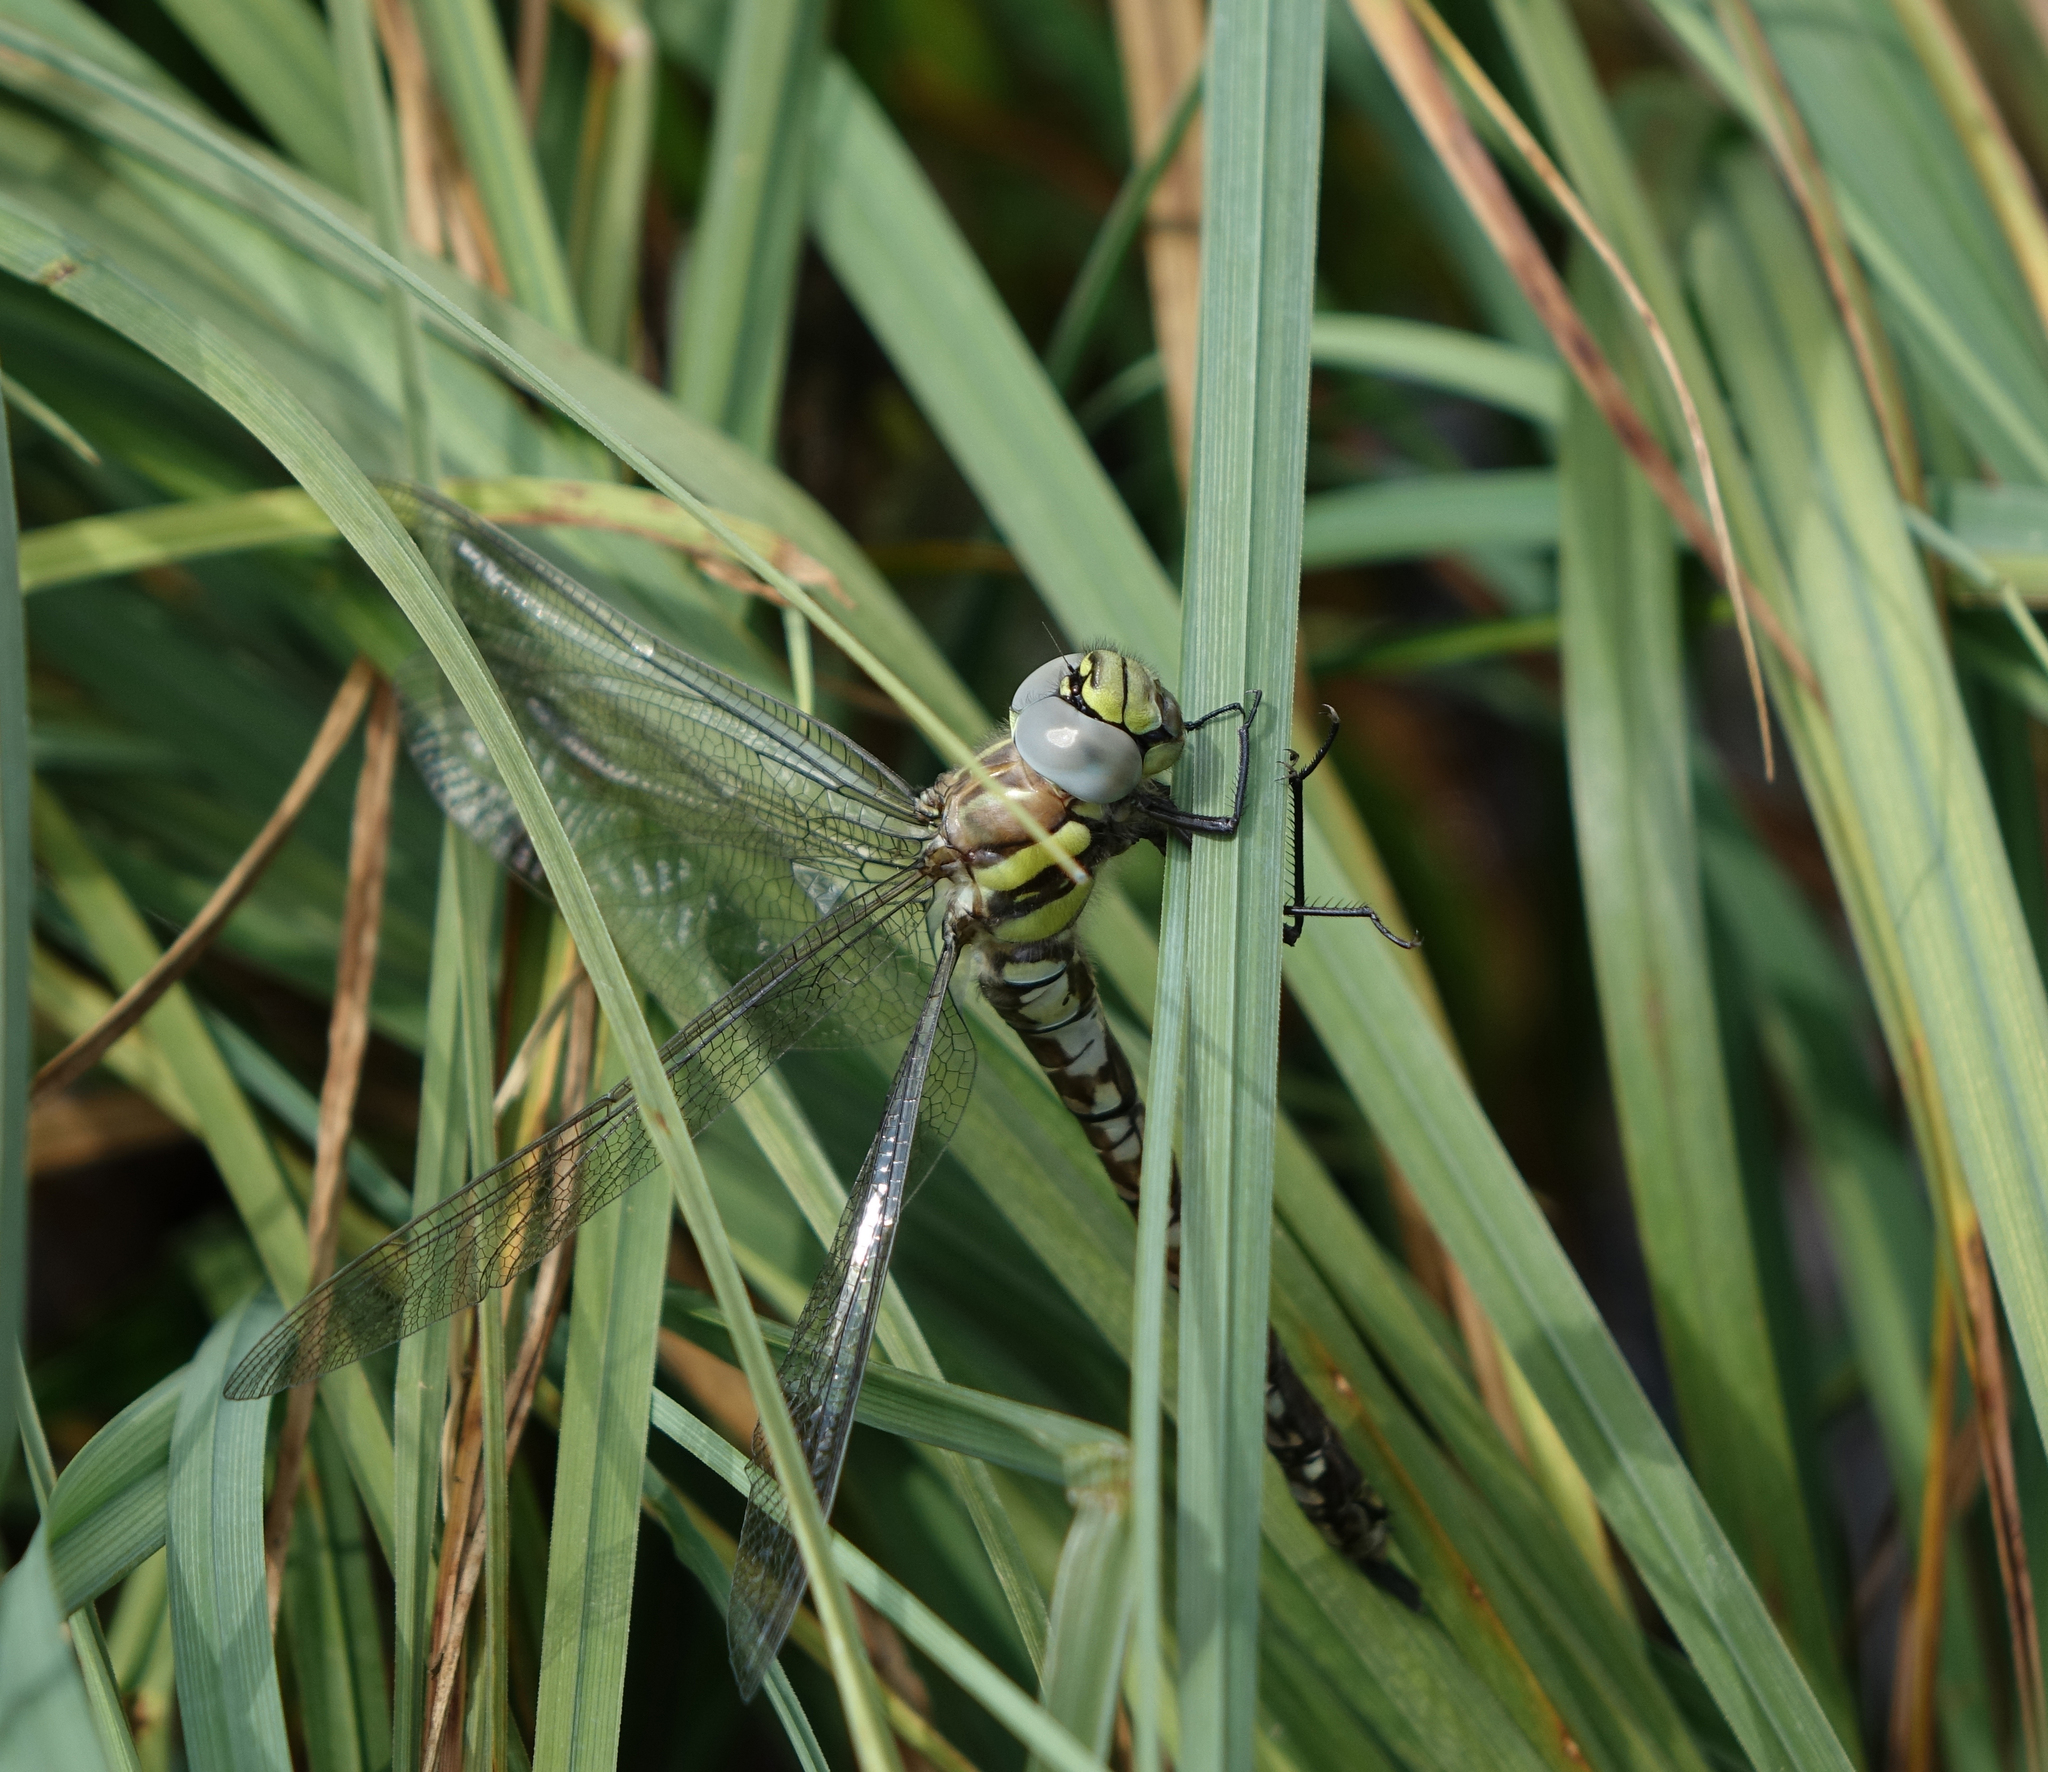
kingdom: Animalia
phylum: Arthropoda
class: Insecta
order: Odonata
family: Aeshnidae
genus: Aeshna
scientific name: Aeshna juncea
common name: Moorland hawker
